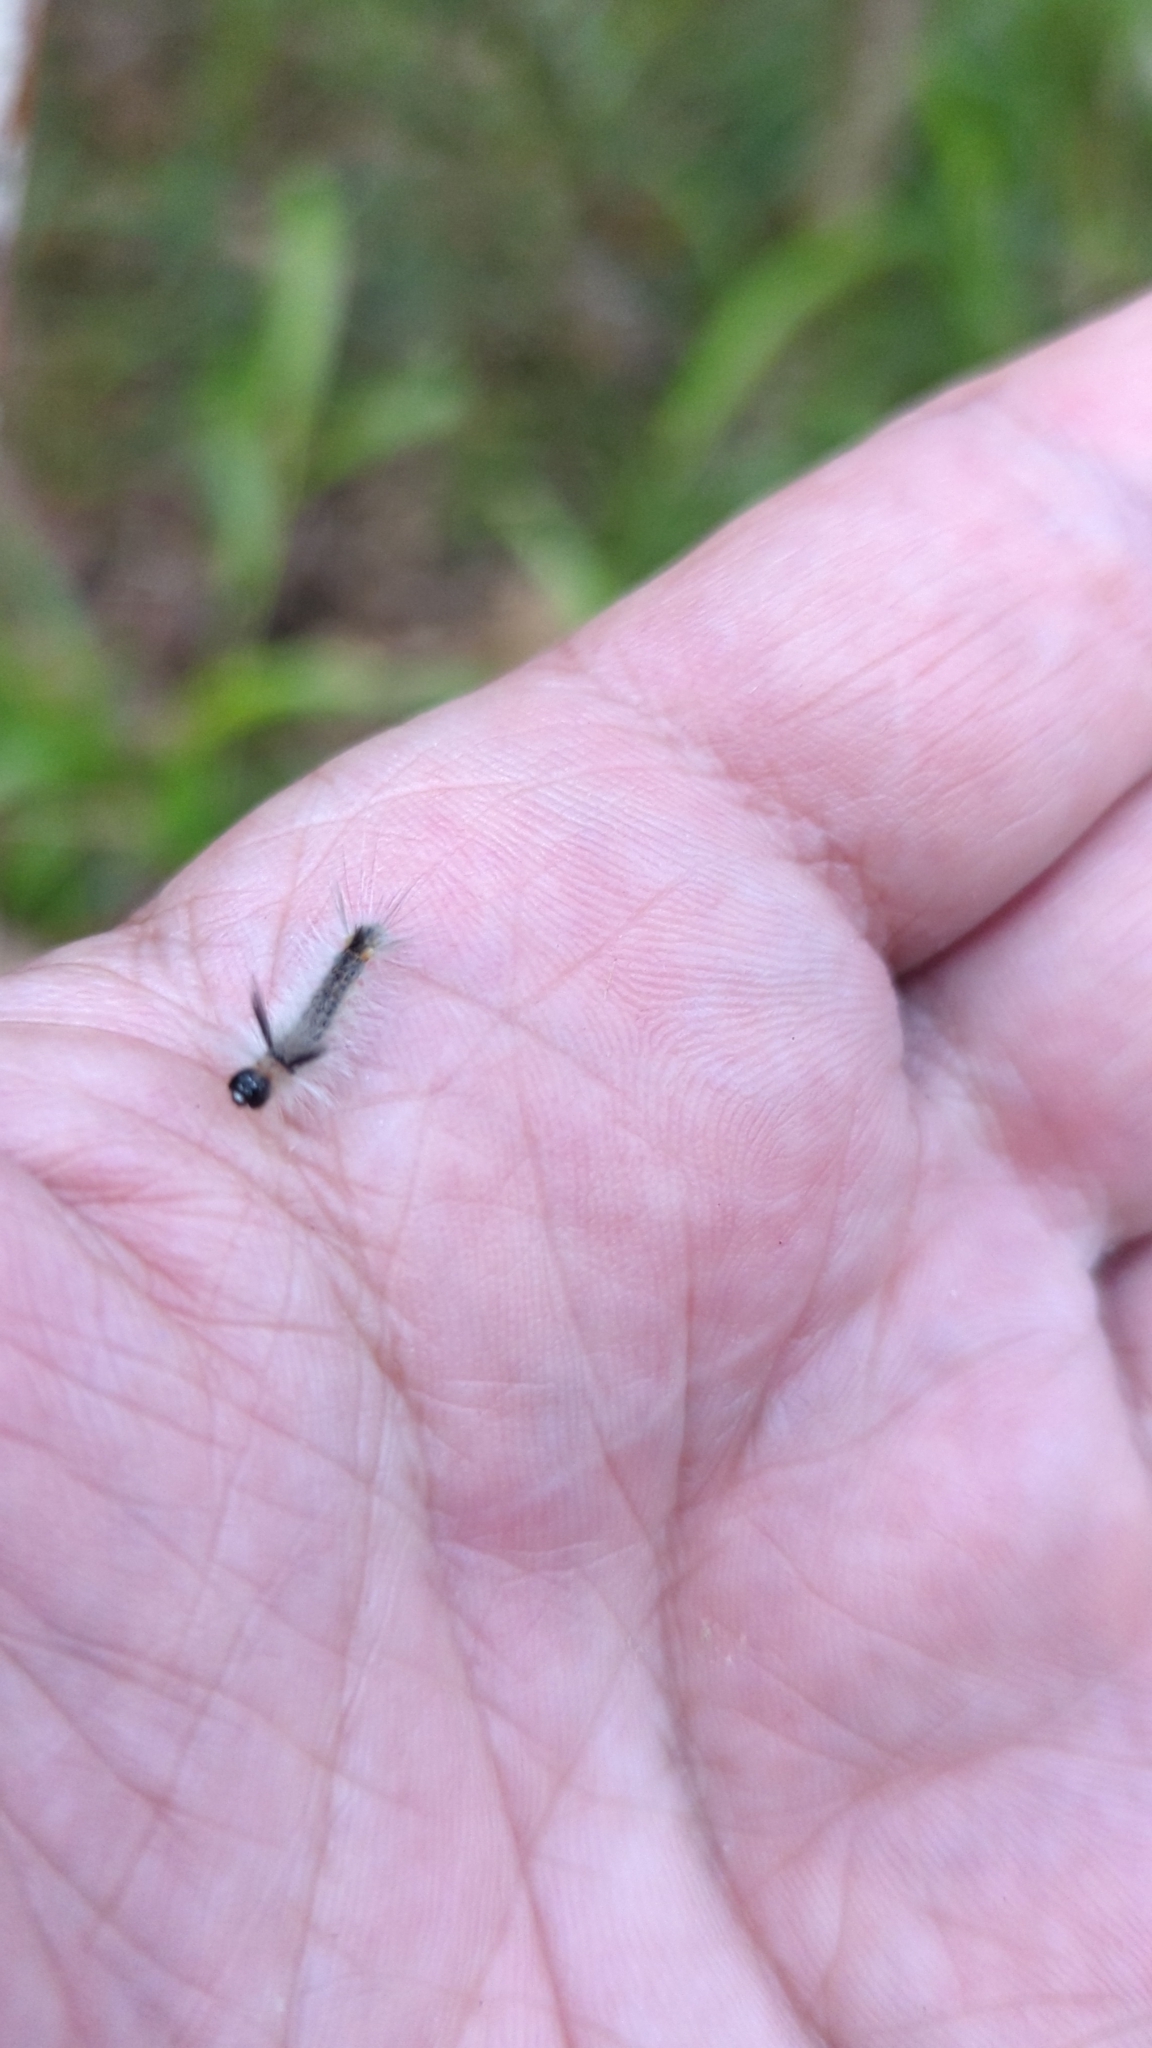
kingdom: Animalia
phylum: Arthropoda
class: Insecta
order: Lepidoptera
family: Erebidae
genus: Halysidota
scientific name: Halysidota tessellaris
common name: Banded tussock moth
